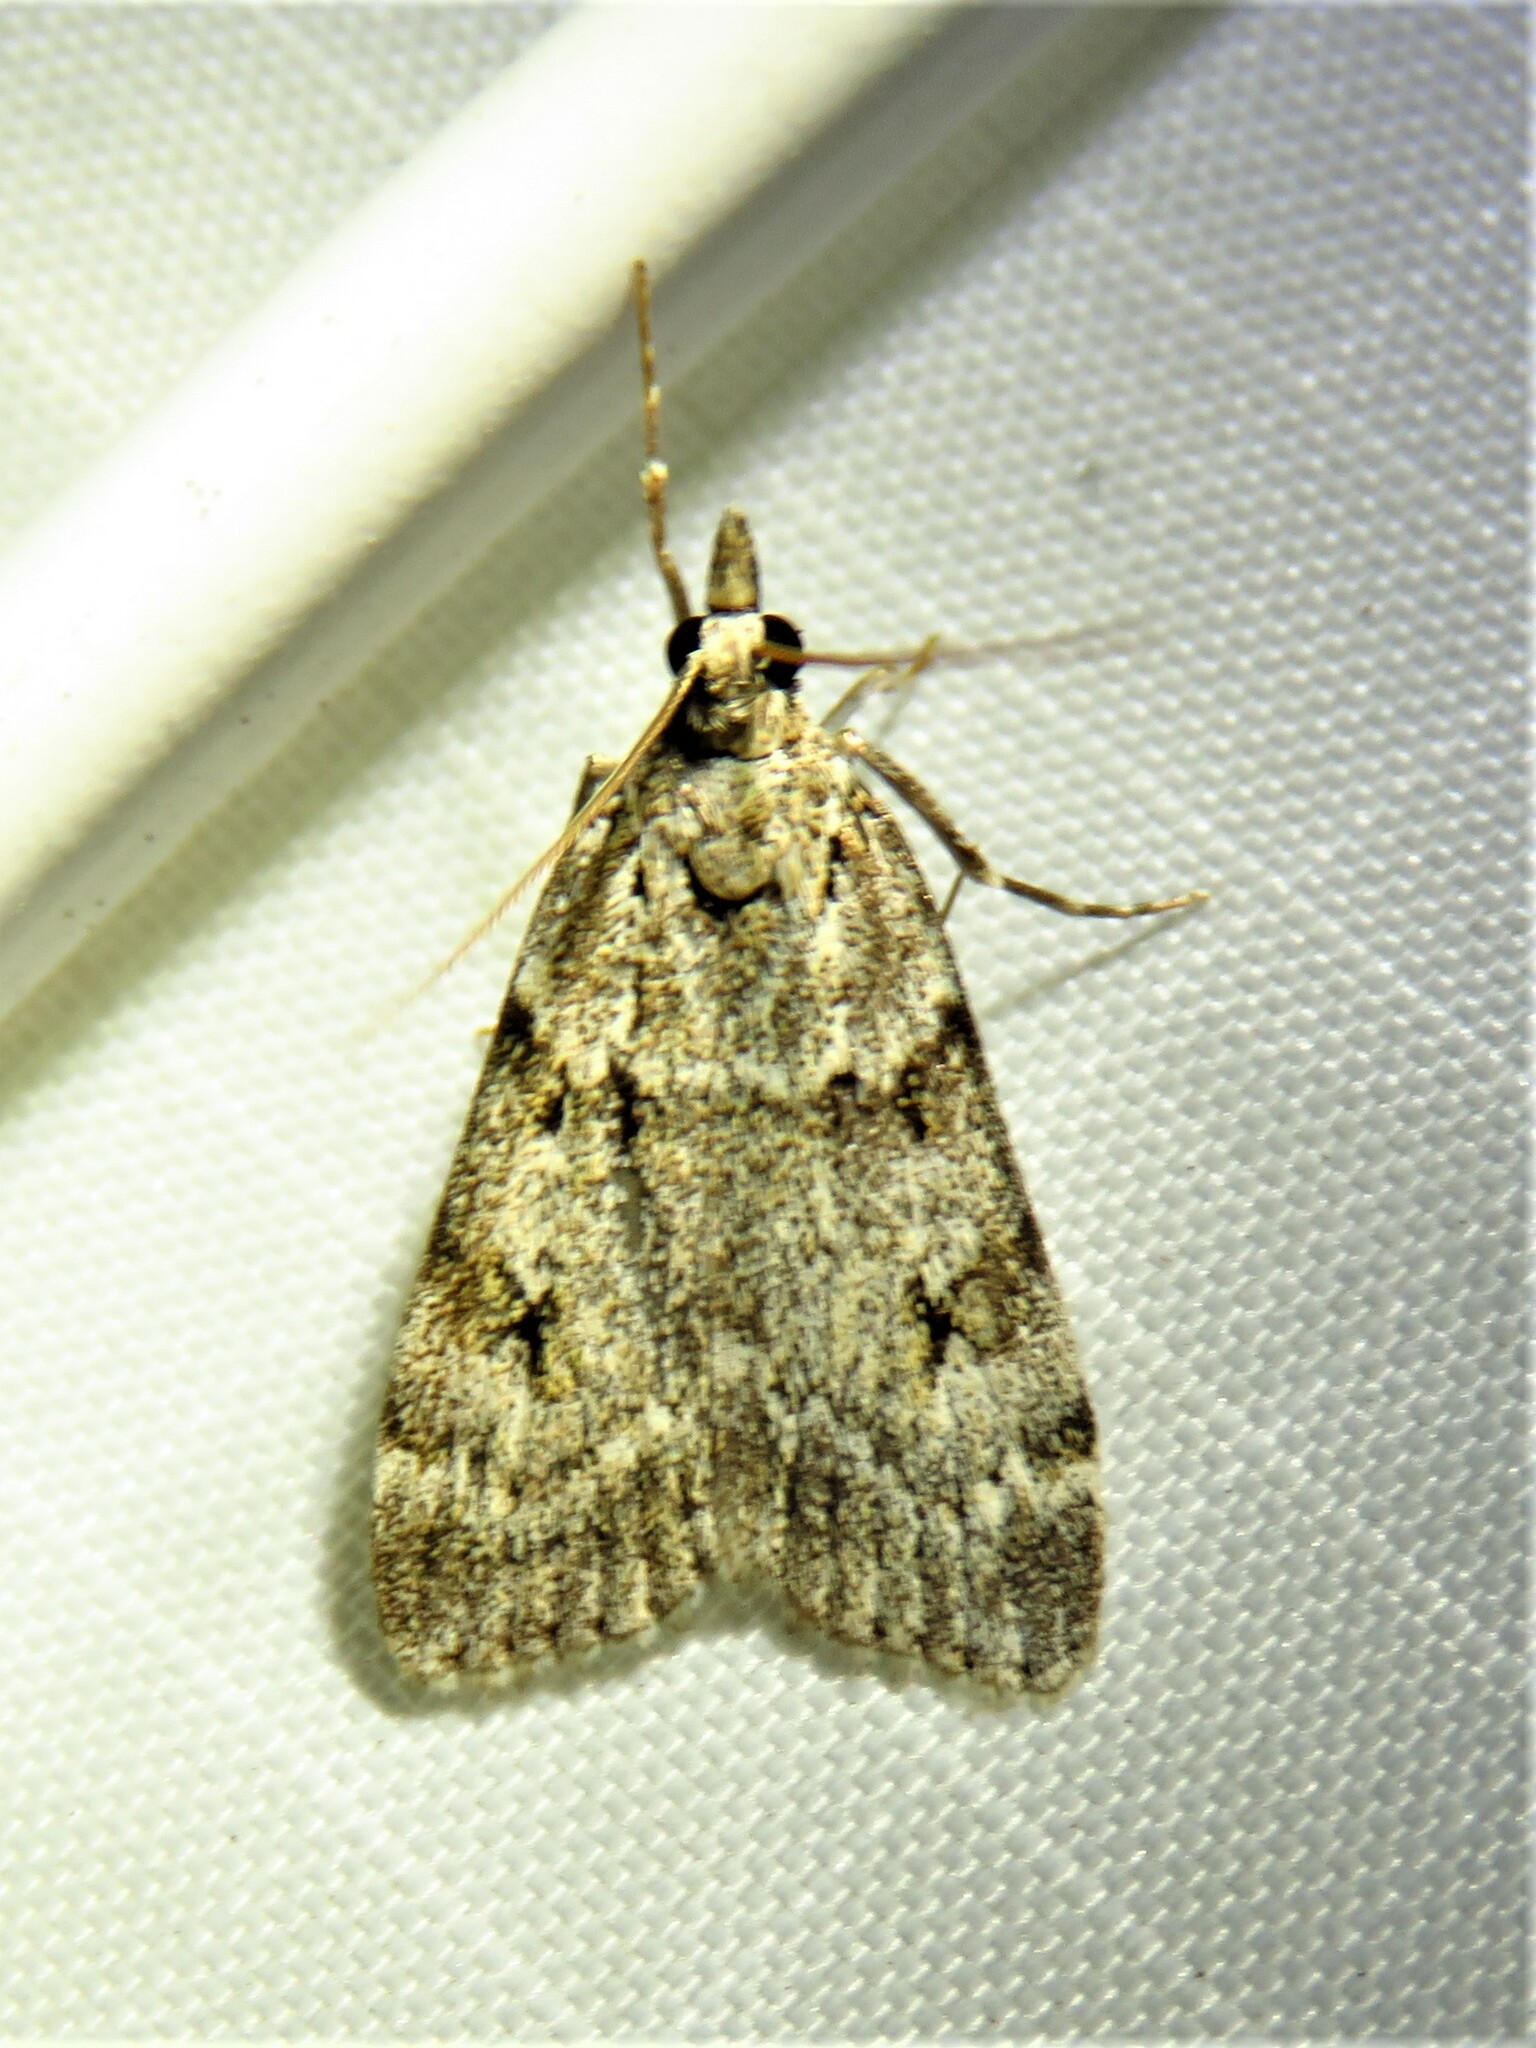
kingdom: Animalia
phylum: Arthropoda
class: Insecta
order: Lepidoptera
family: Crambidae
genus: Eudonia
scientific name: Eudonia lacustrata
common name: Little grey
